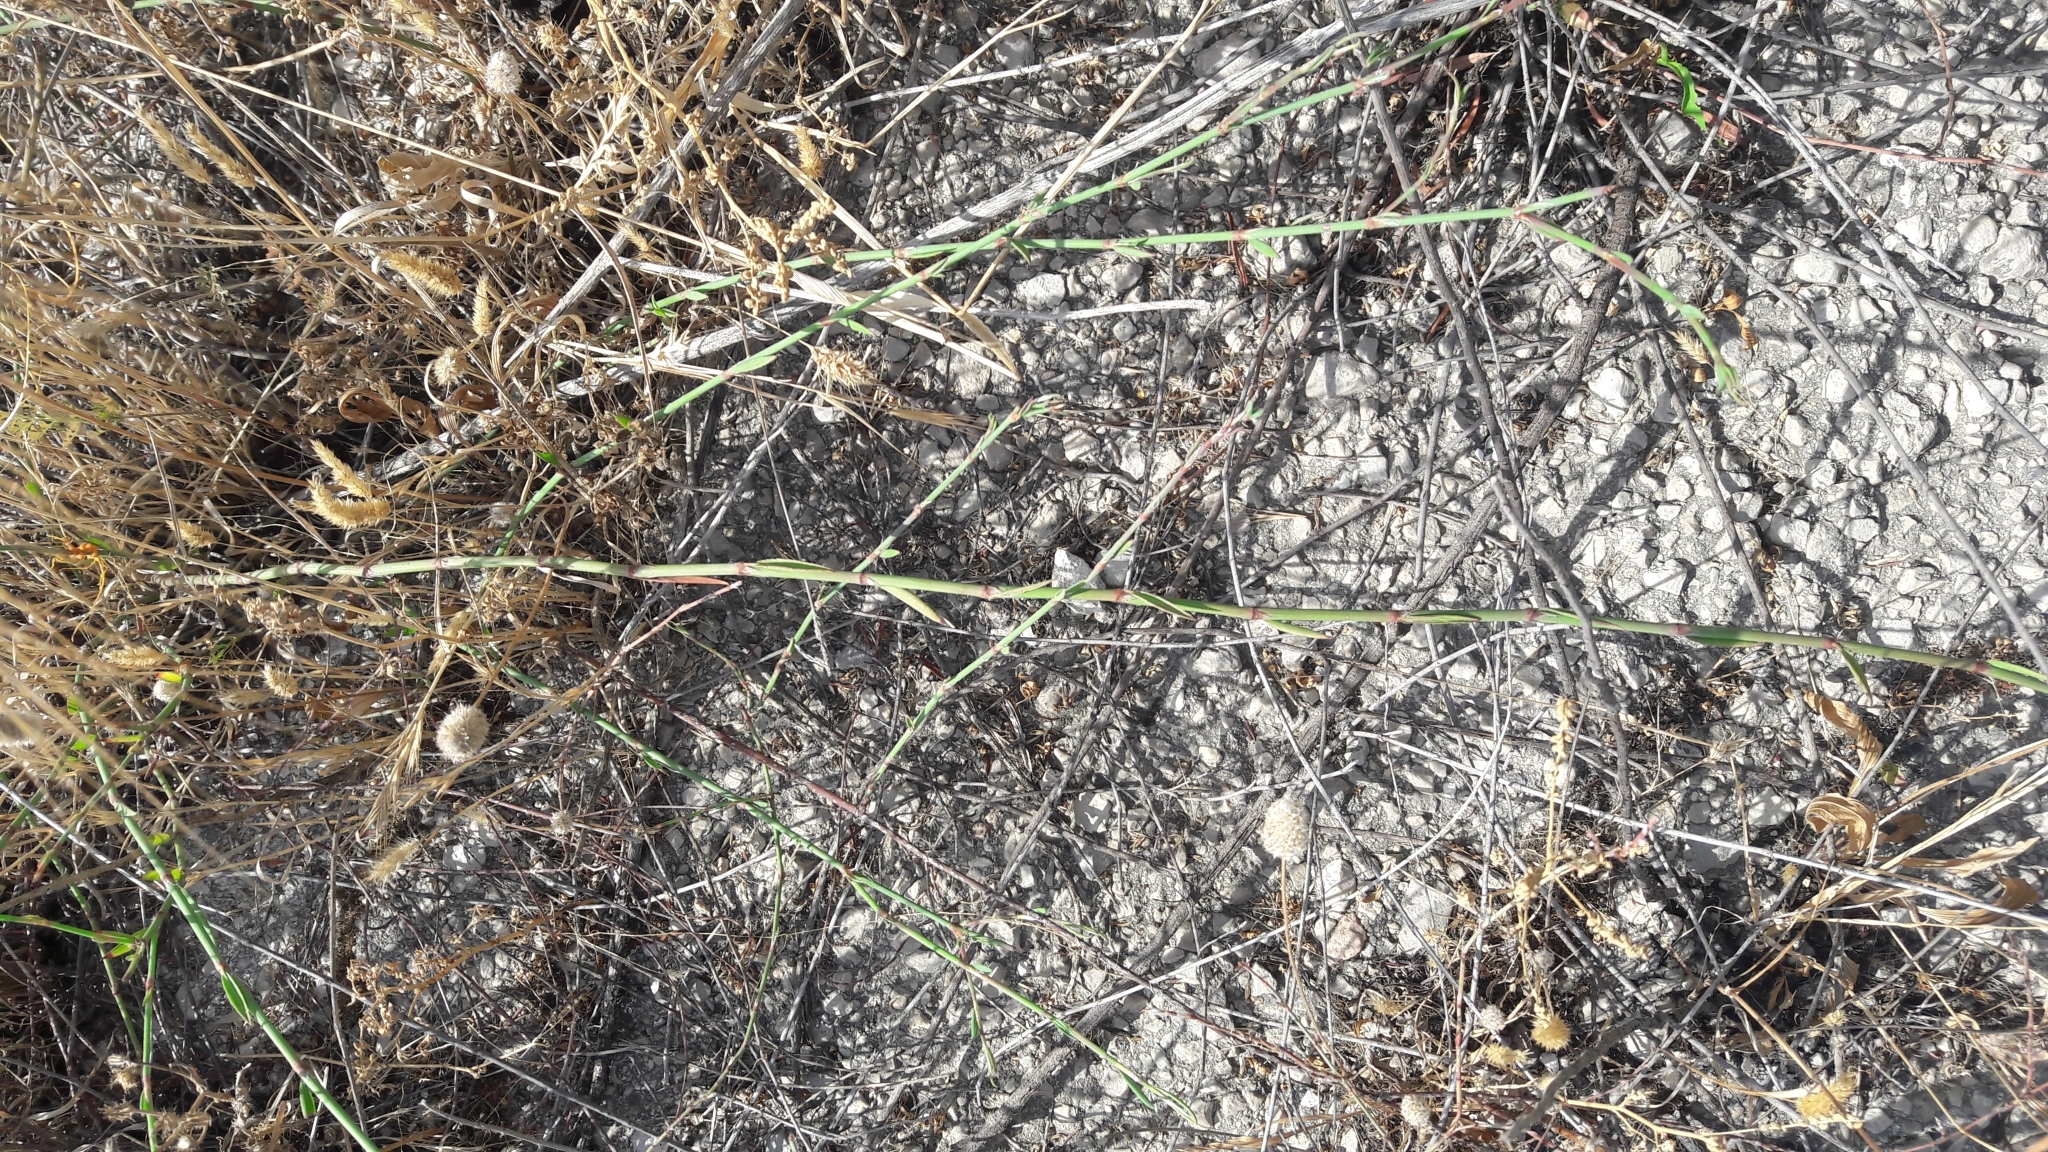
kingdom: Plantae
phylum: Tracheophyta
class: Magnoliopsida
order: Caryophyllales
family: Polygonaceae
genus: Polygonum
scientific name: Polygonum equisetiforme
